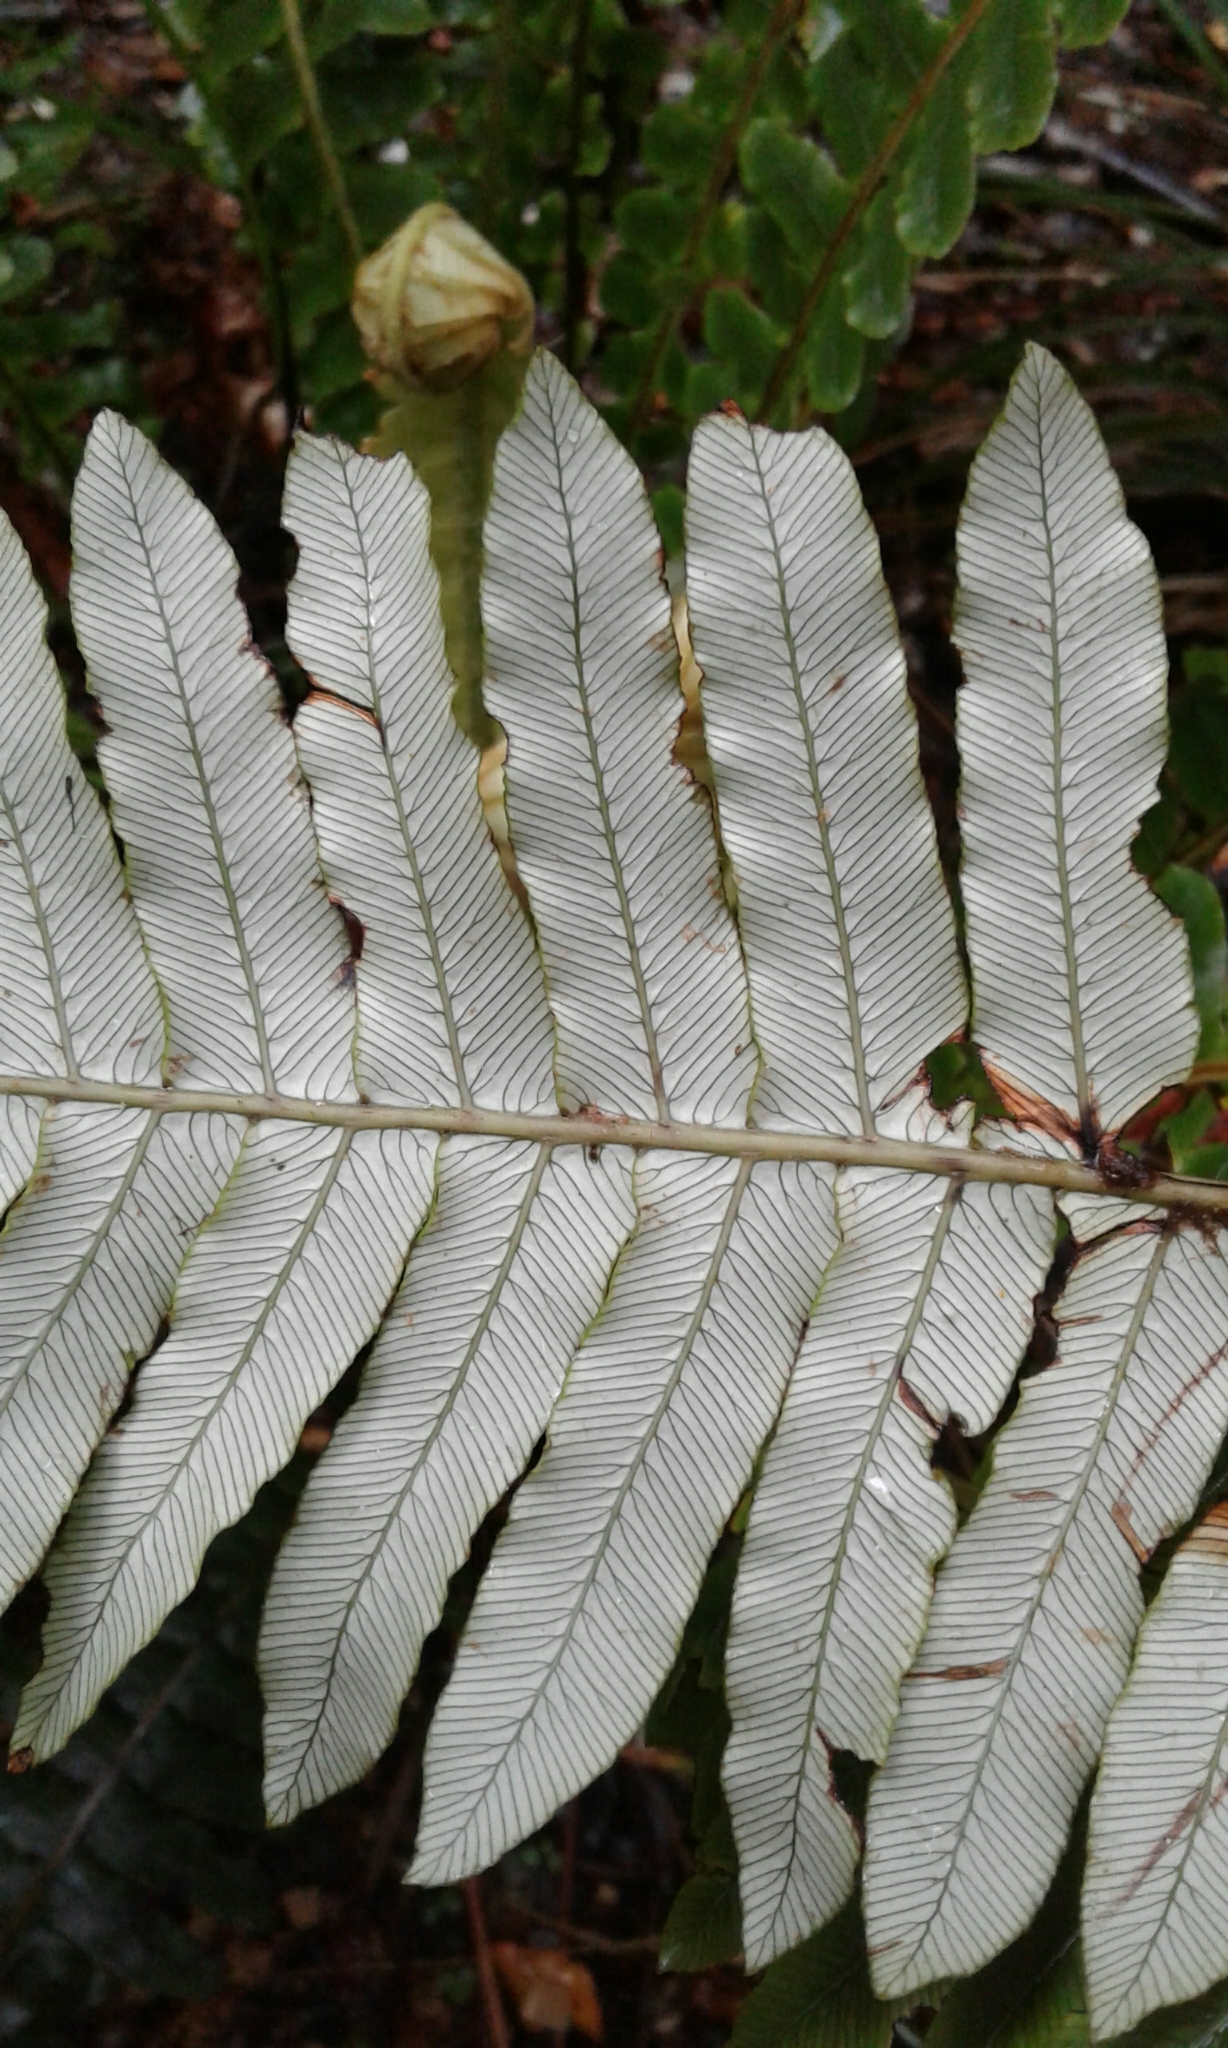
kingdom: Plantae
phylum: Tracheophyta
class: Polypodiopsida
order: Polypodiales
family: Blechnaceae
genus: Lomaria
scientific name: Lomaria discolor
